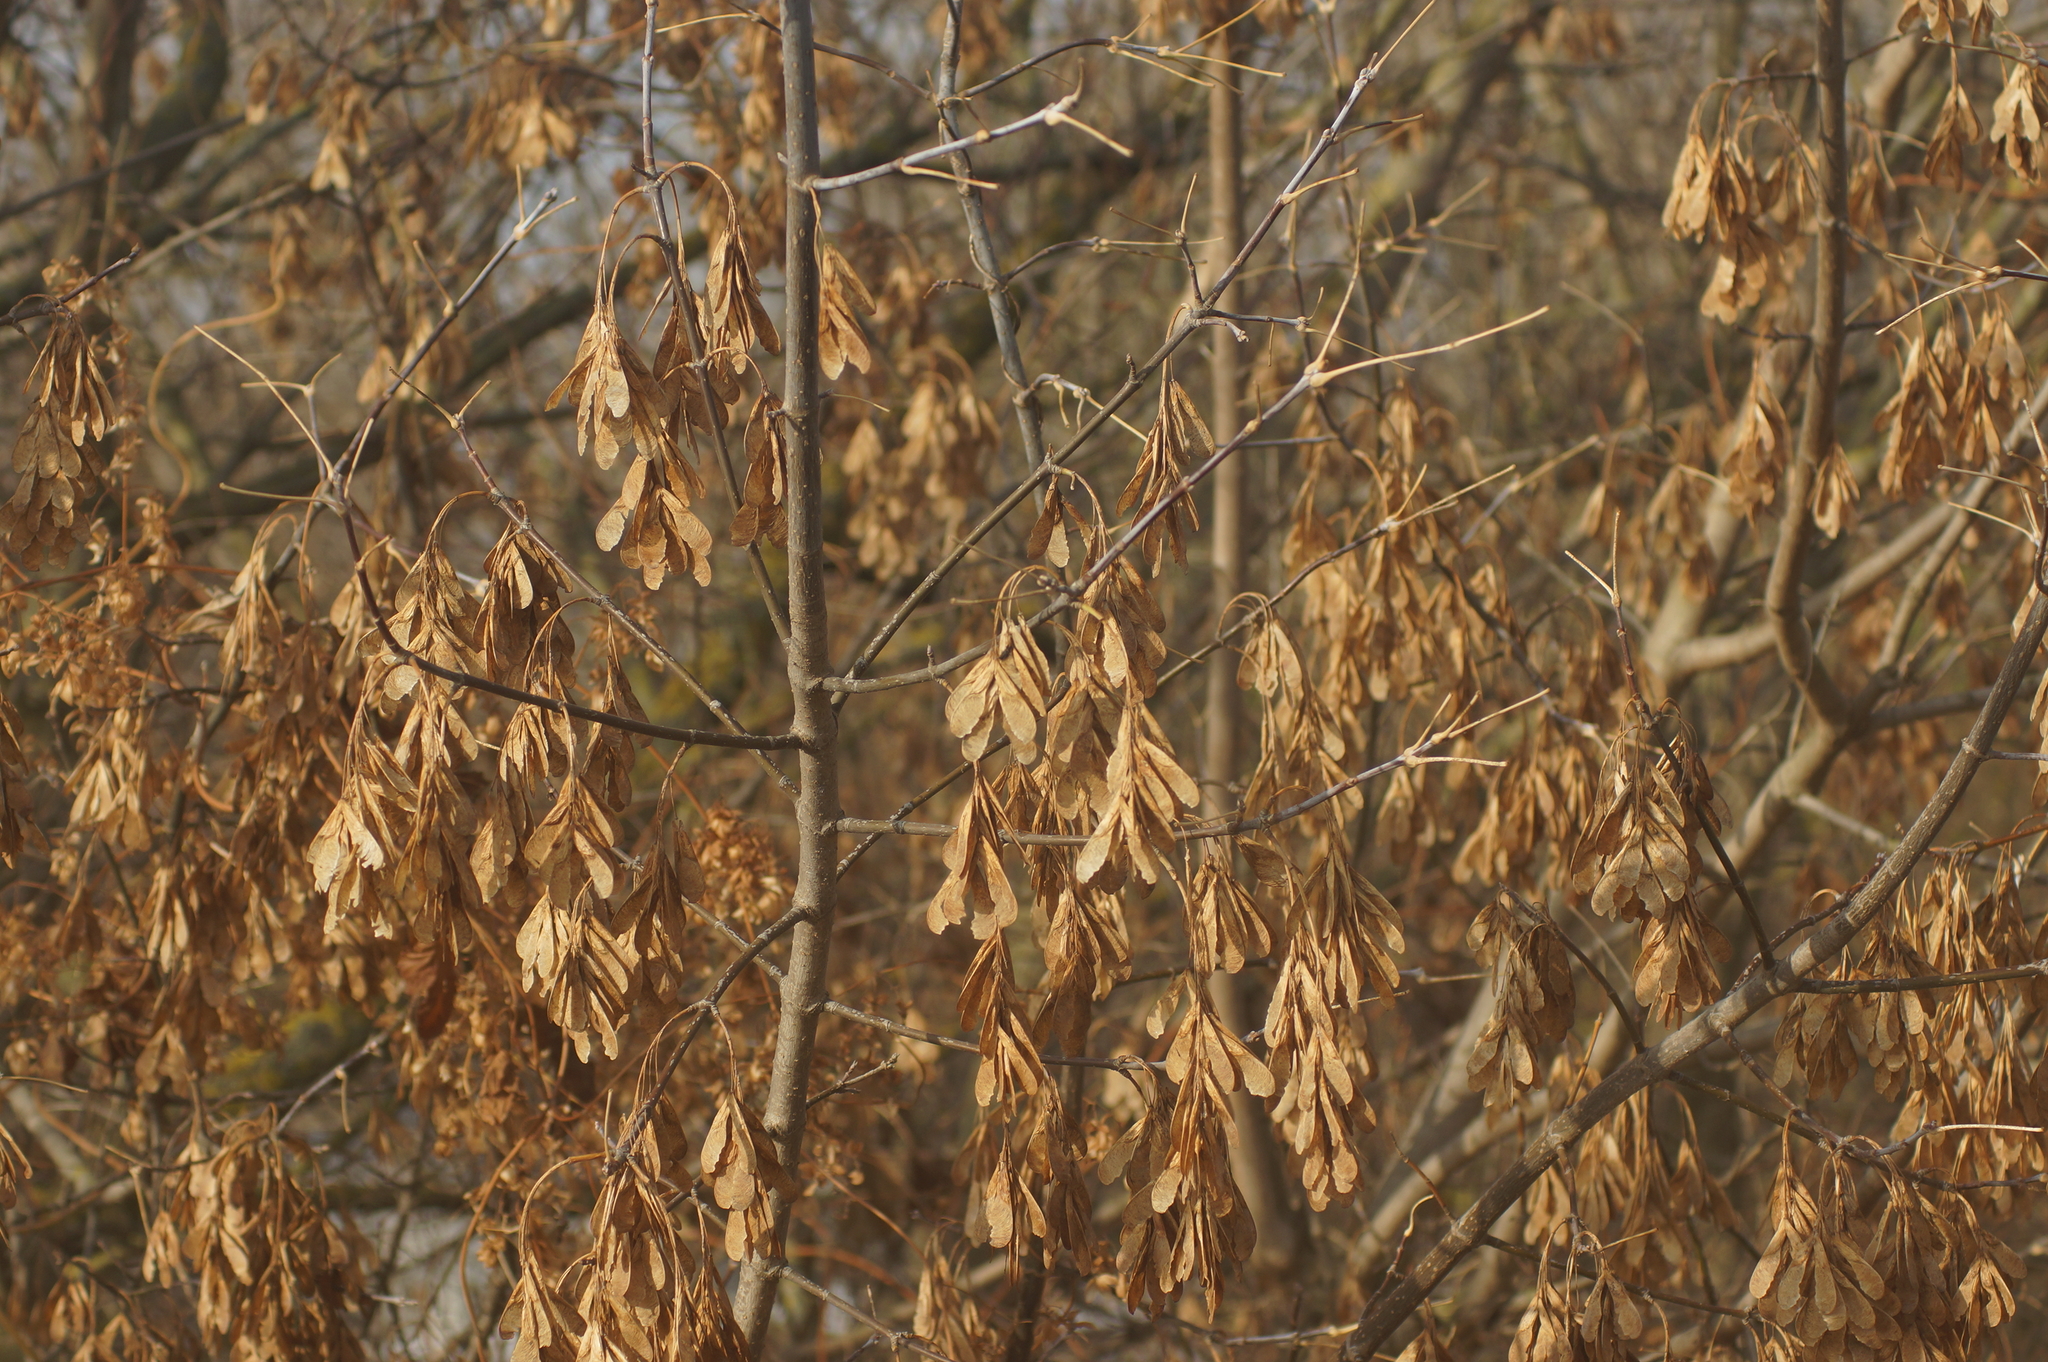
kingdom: Plantae
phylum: Tracheophyta
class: Magnoliopsida
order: Sapindales
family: Sapindaceae
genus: Acer
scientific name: Acer negundo
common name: Ashleaf maple
